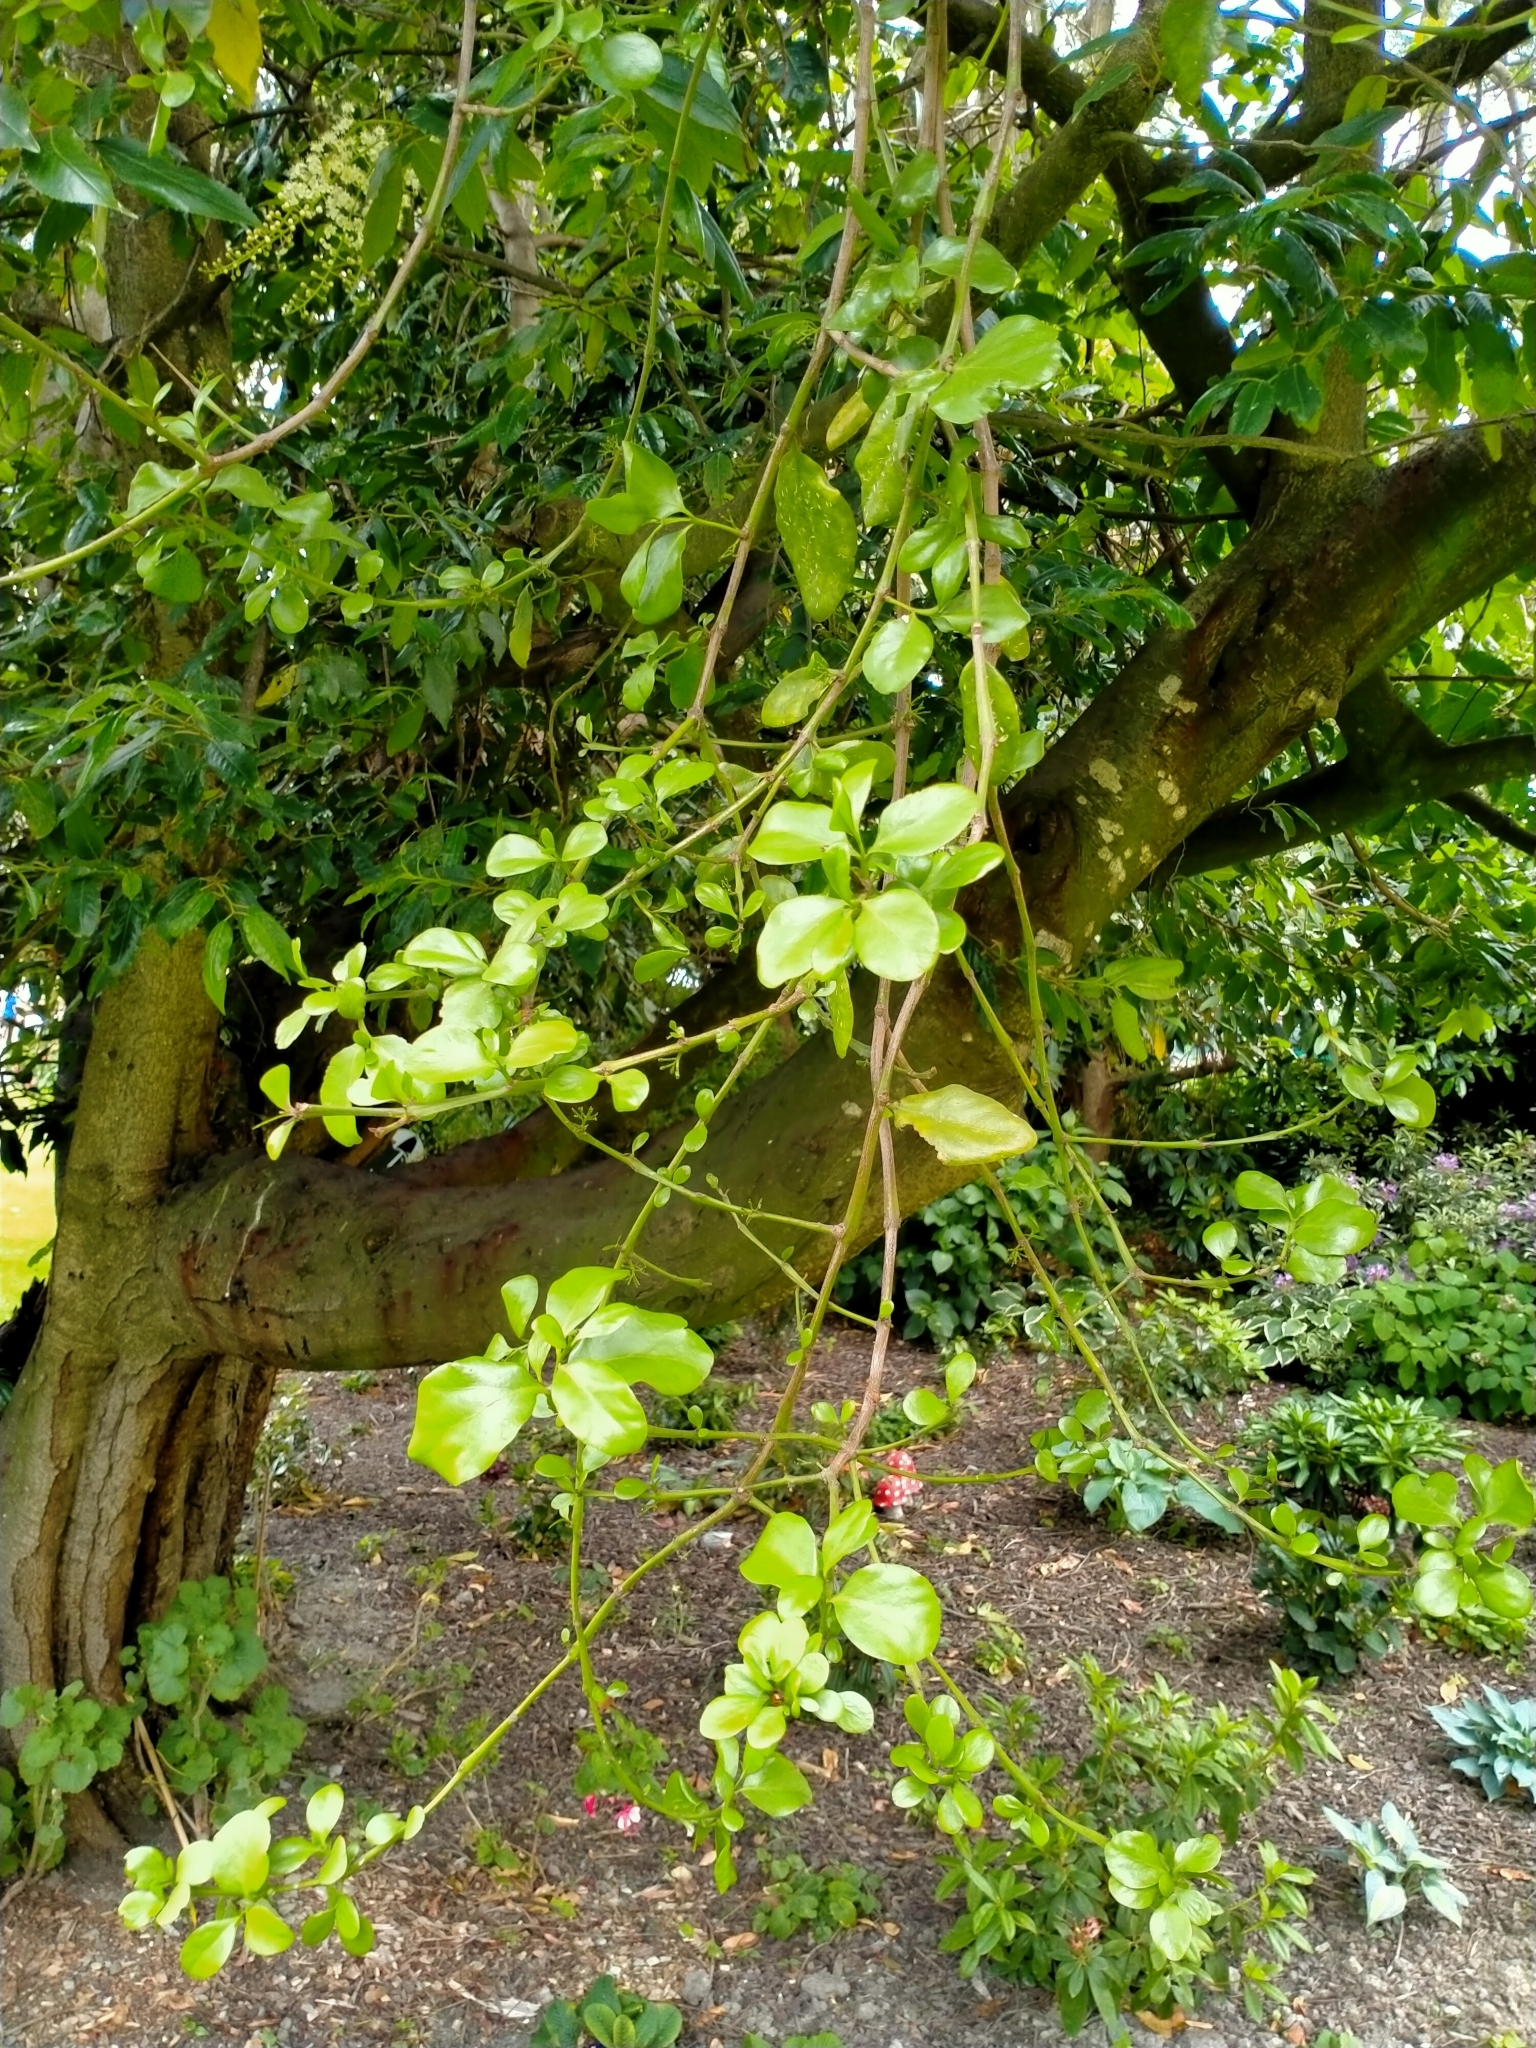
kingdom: Plantae
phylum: Tracheophyta
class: Magnoliopsida
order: Santalales
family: Loranthaceae
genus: Ileostylus
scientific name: Ileostylus micranthus
